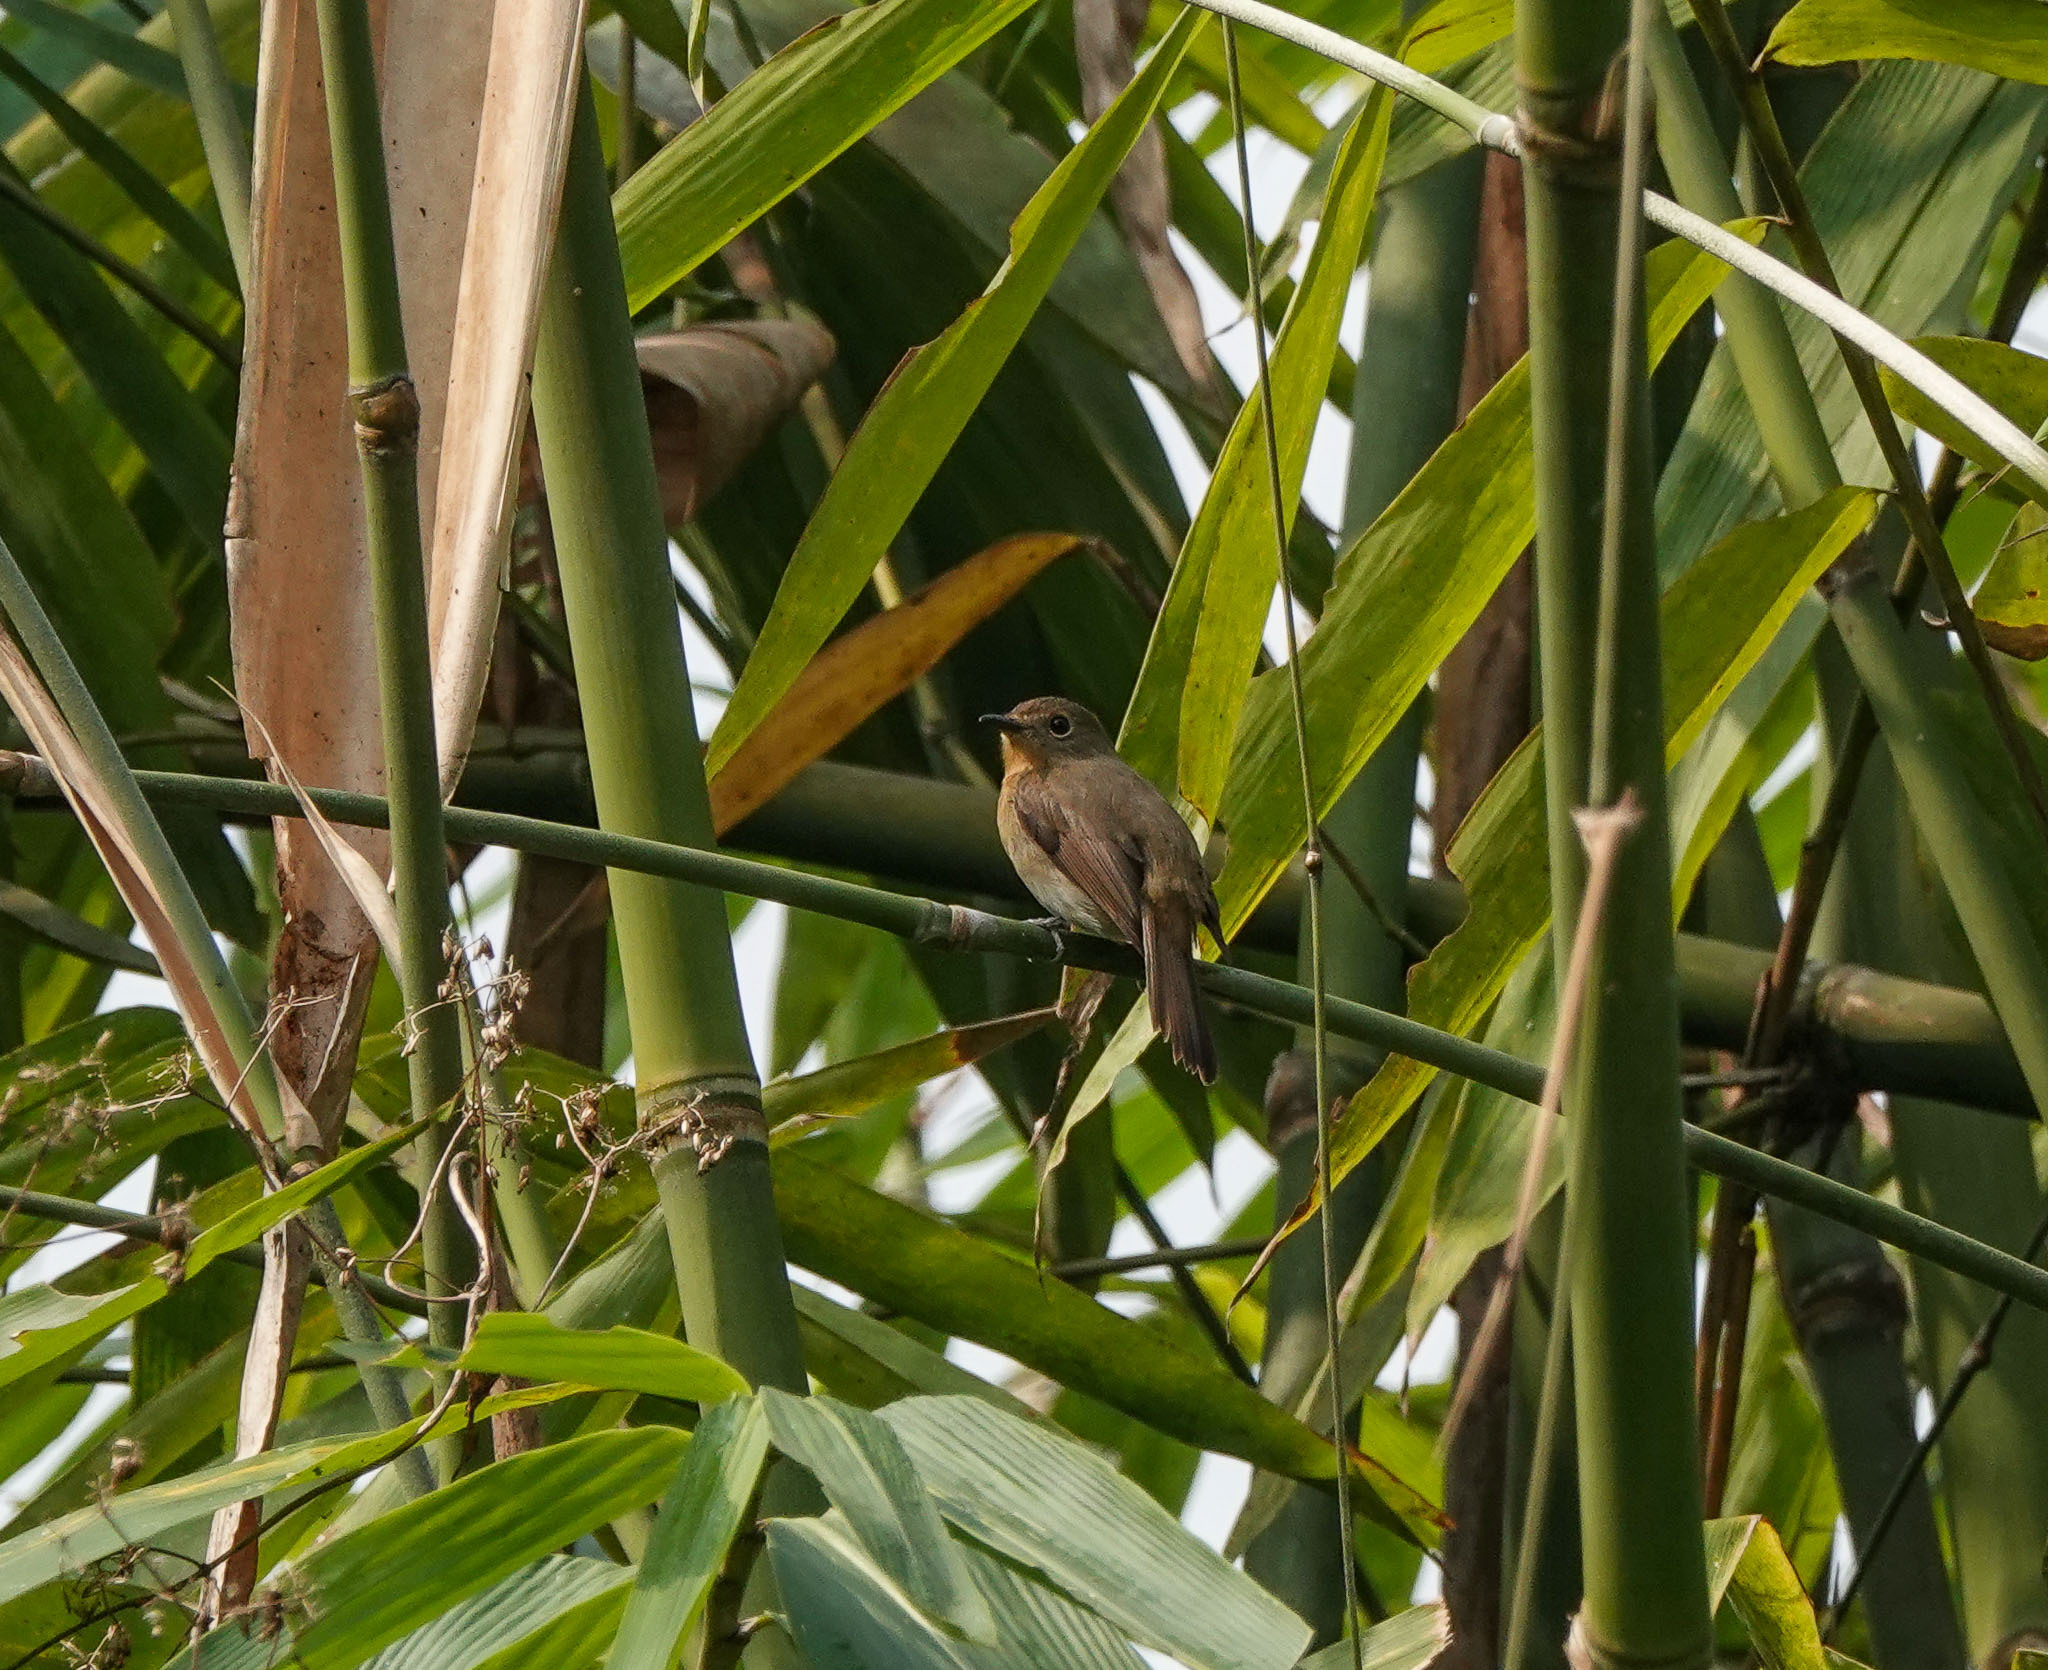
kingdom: Animalia
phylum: Chordata
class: Aves
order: Passeriformes
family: Muscicapidae
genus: Cyornis
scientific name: Cyornis whitei
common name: Hill blue flycatcher
